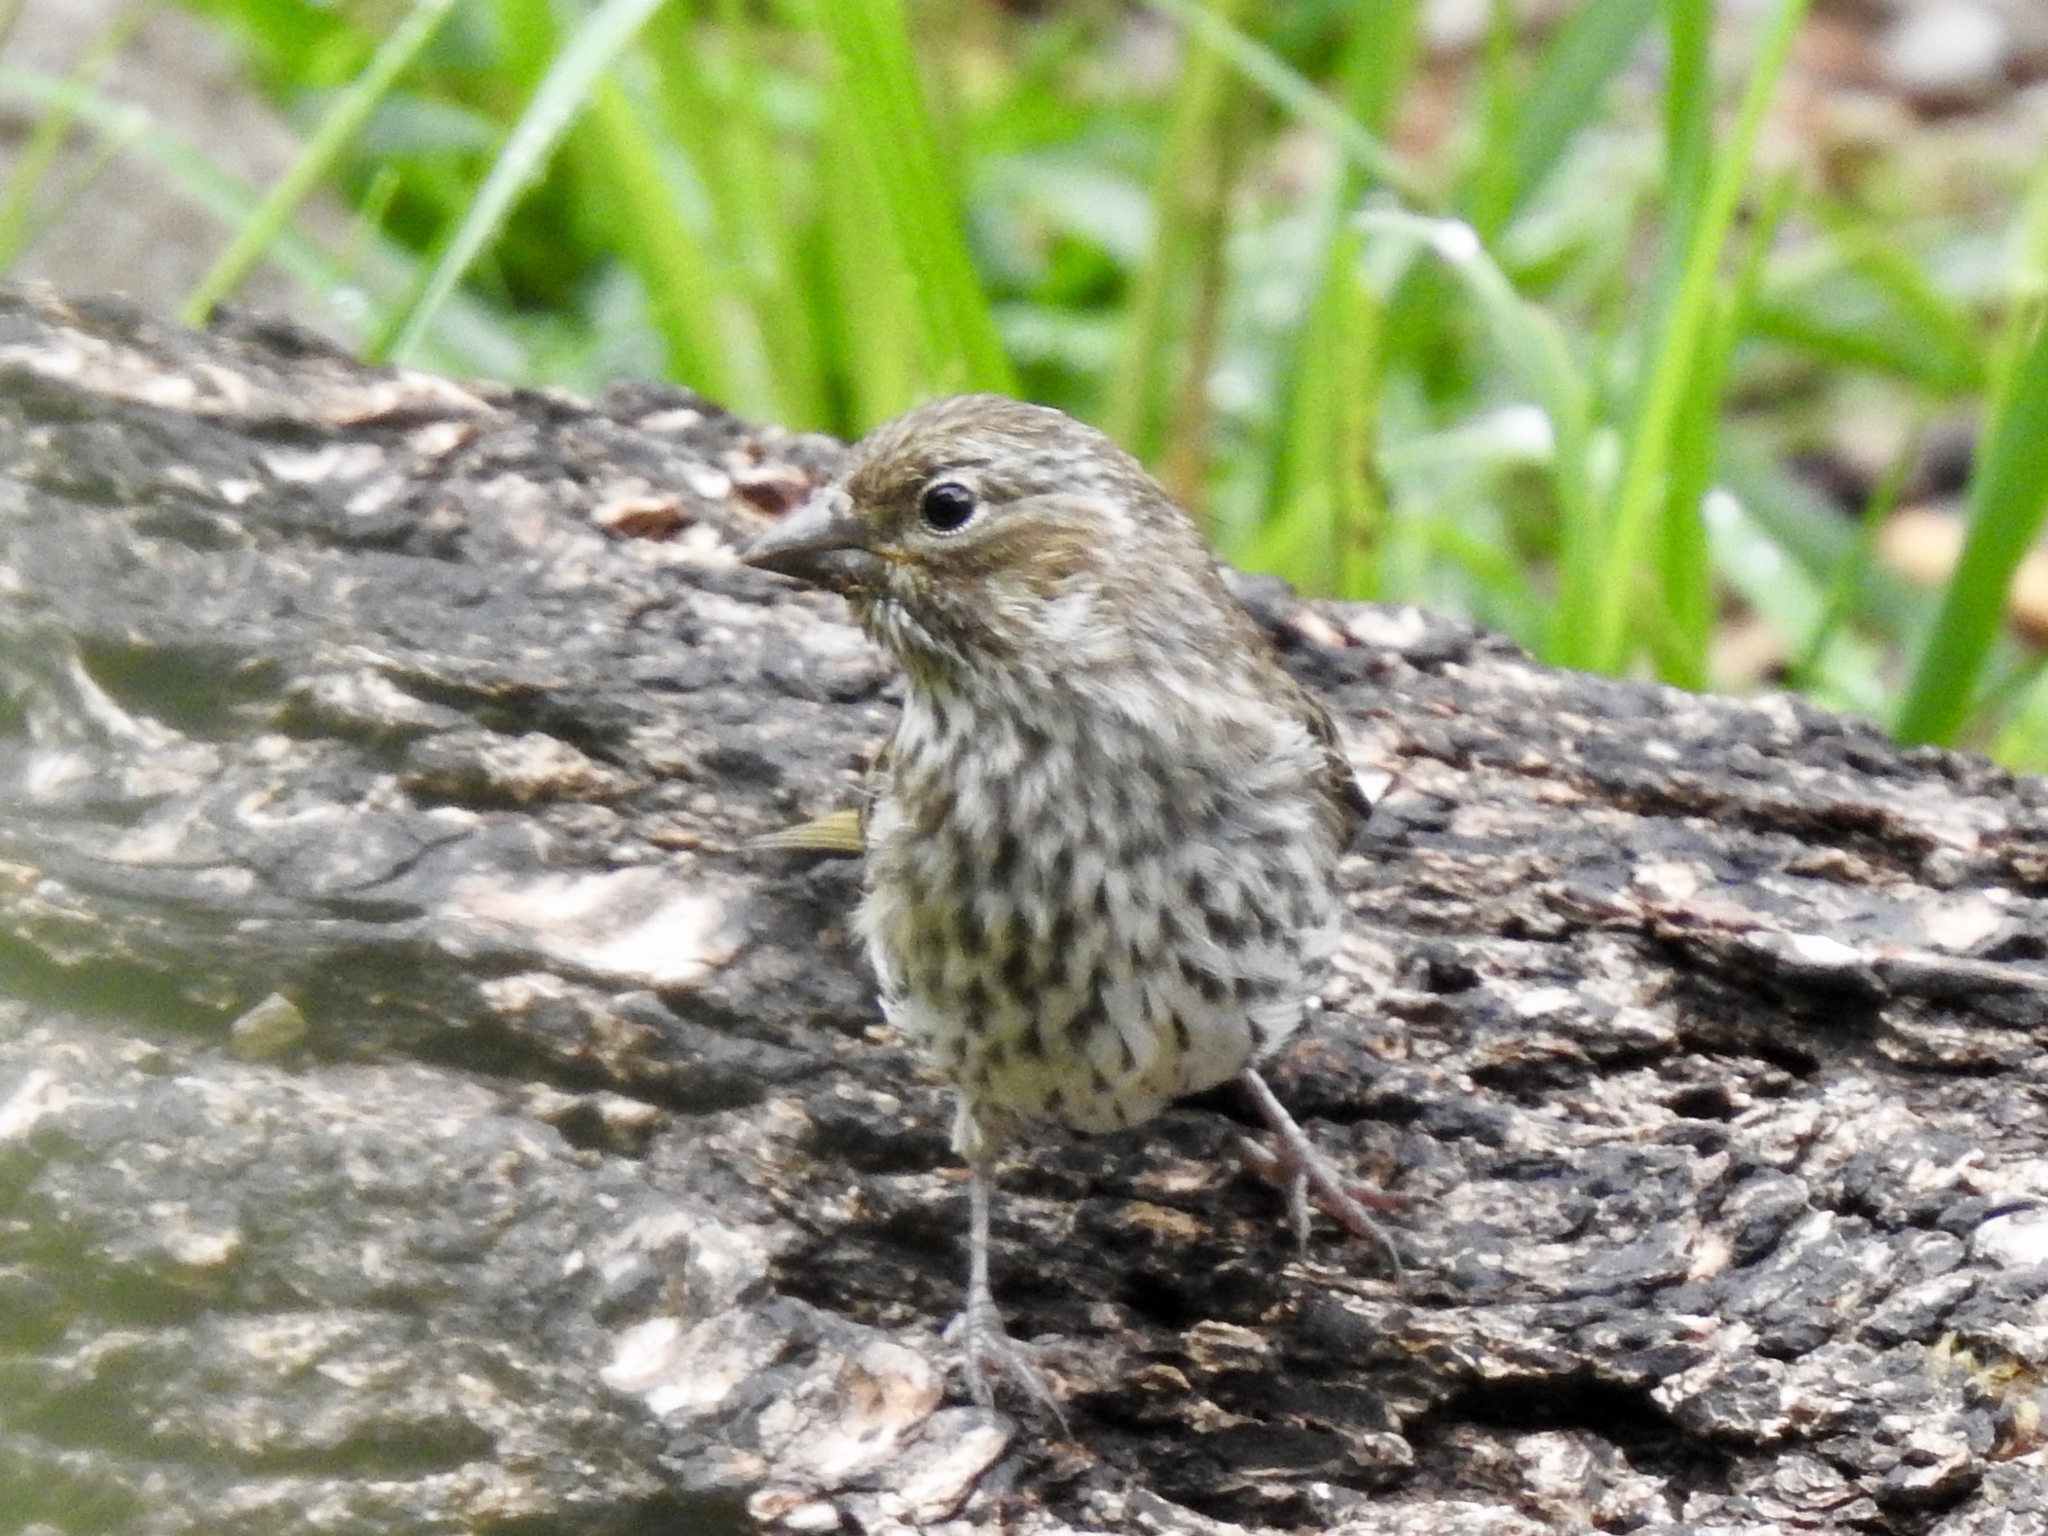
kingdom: Animalia
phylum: Chordata
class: Aves
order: Passeriformes
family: Fringillidae
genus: Haemorhous
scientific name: Haemorhous cassinii
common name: Cassin's finch
